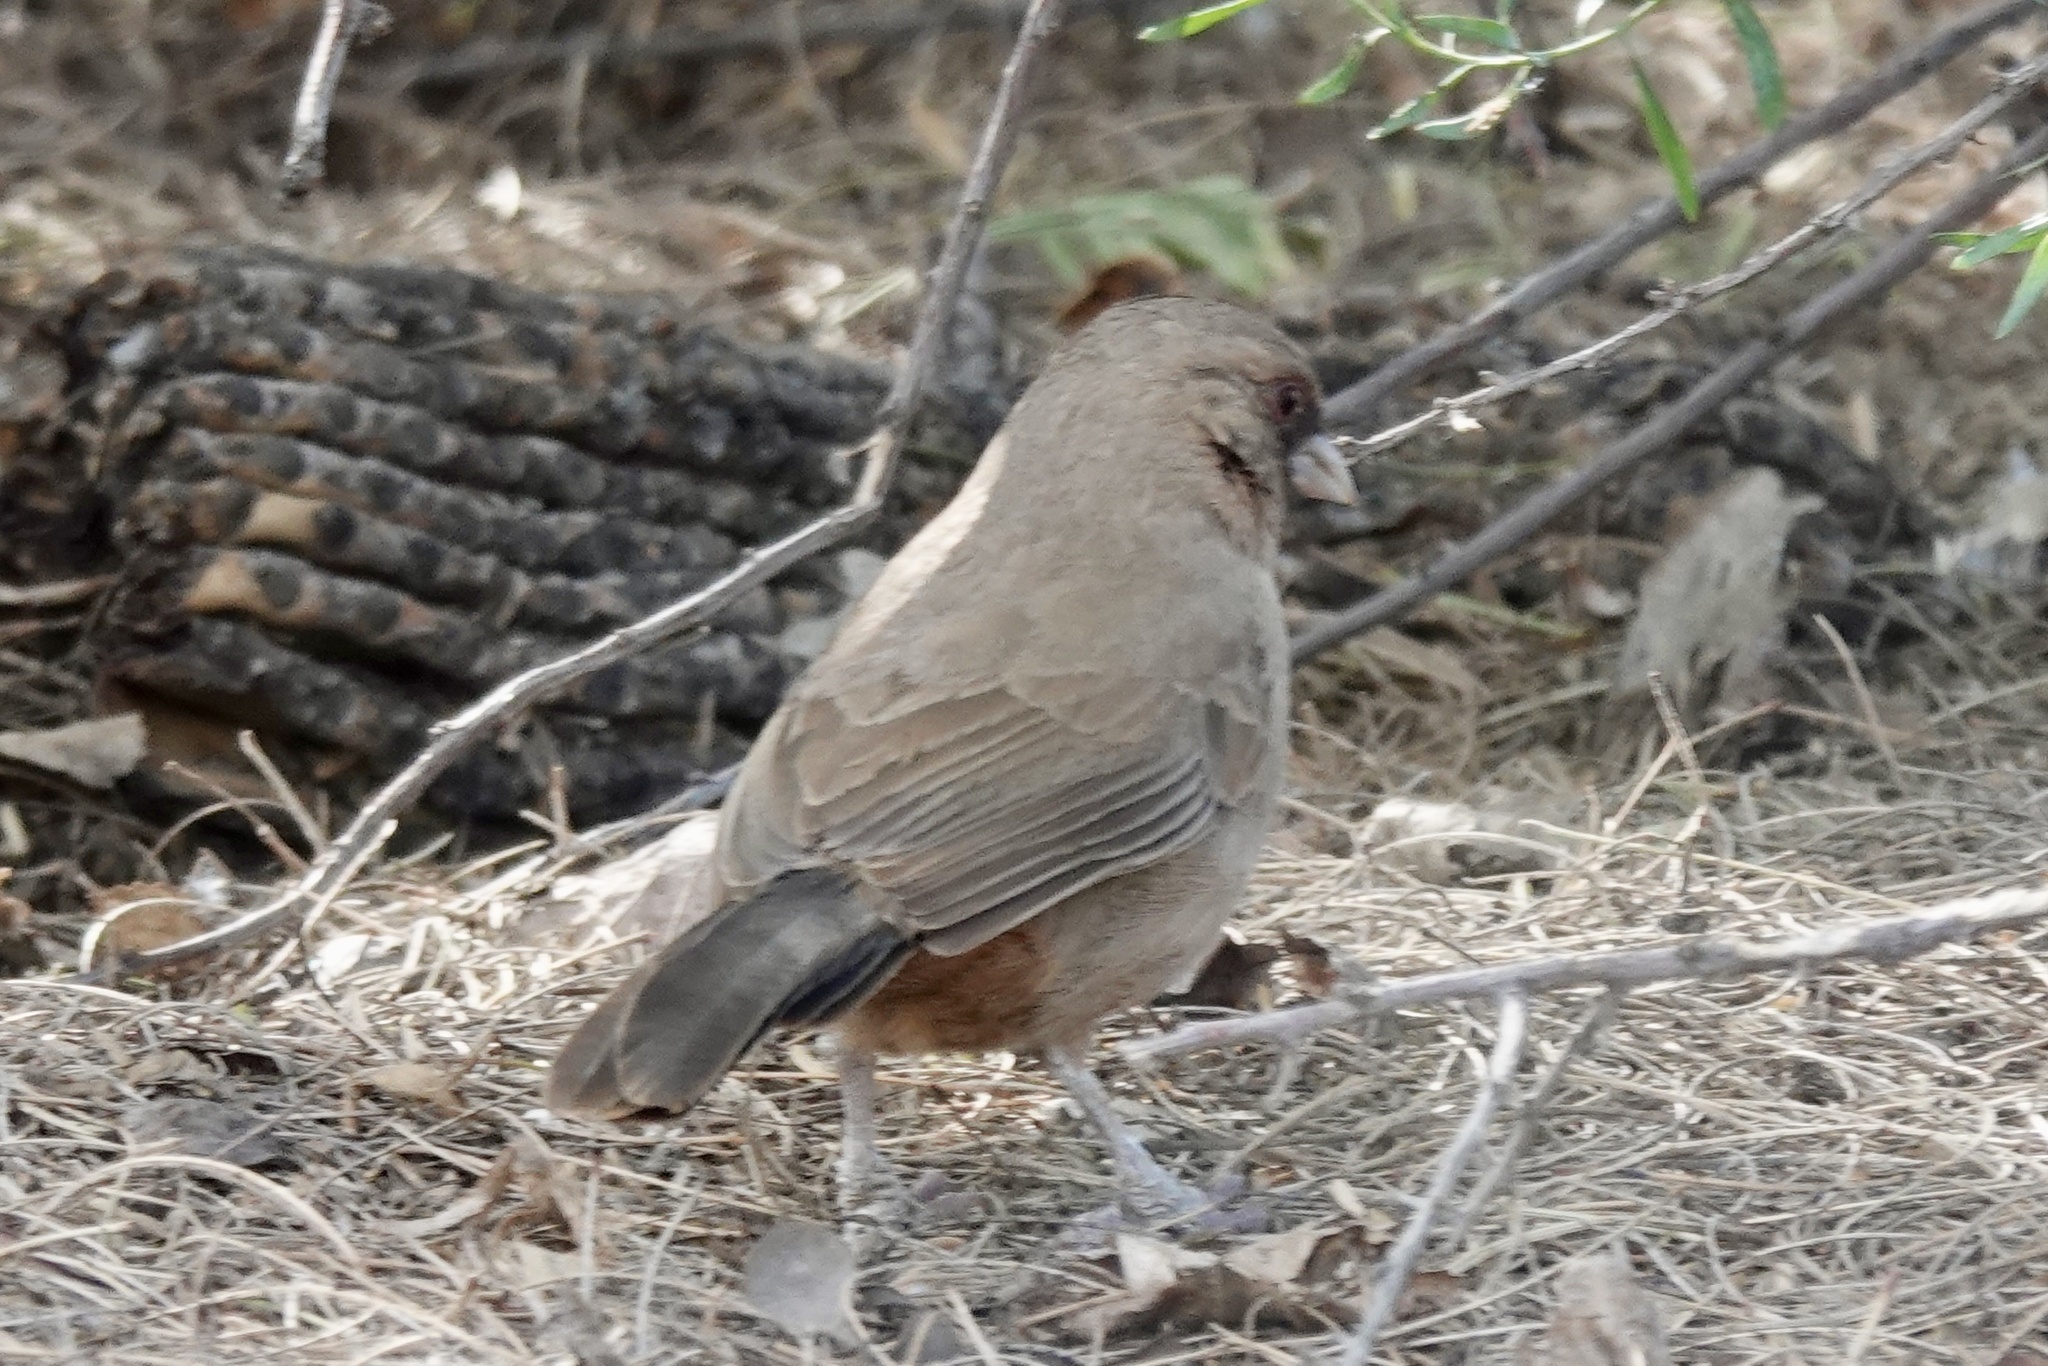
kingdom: Animalia
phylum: Chordata
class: Aves
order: Passeriformes
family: Passerellidae
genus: Melozone
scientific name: Melozone aberti
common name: Abert's towhee
